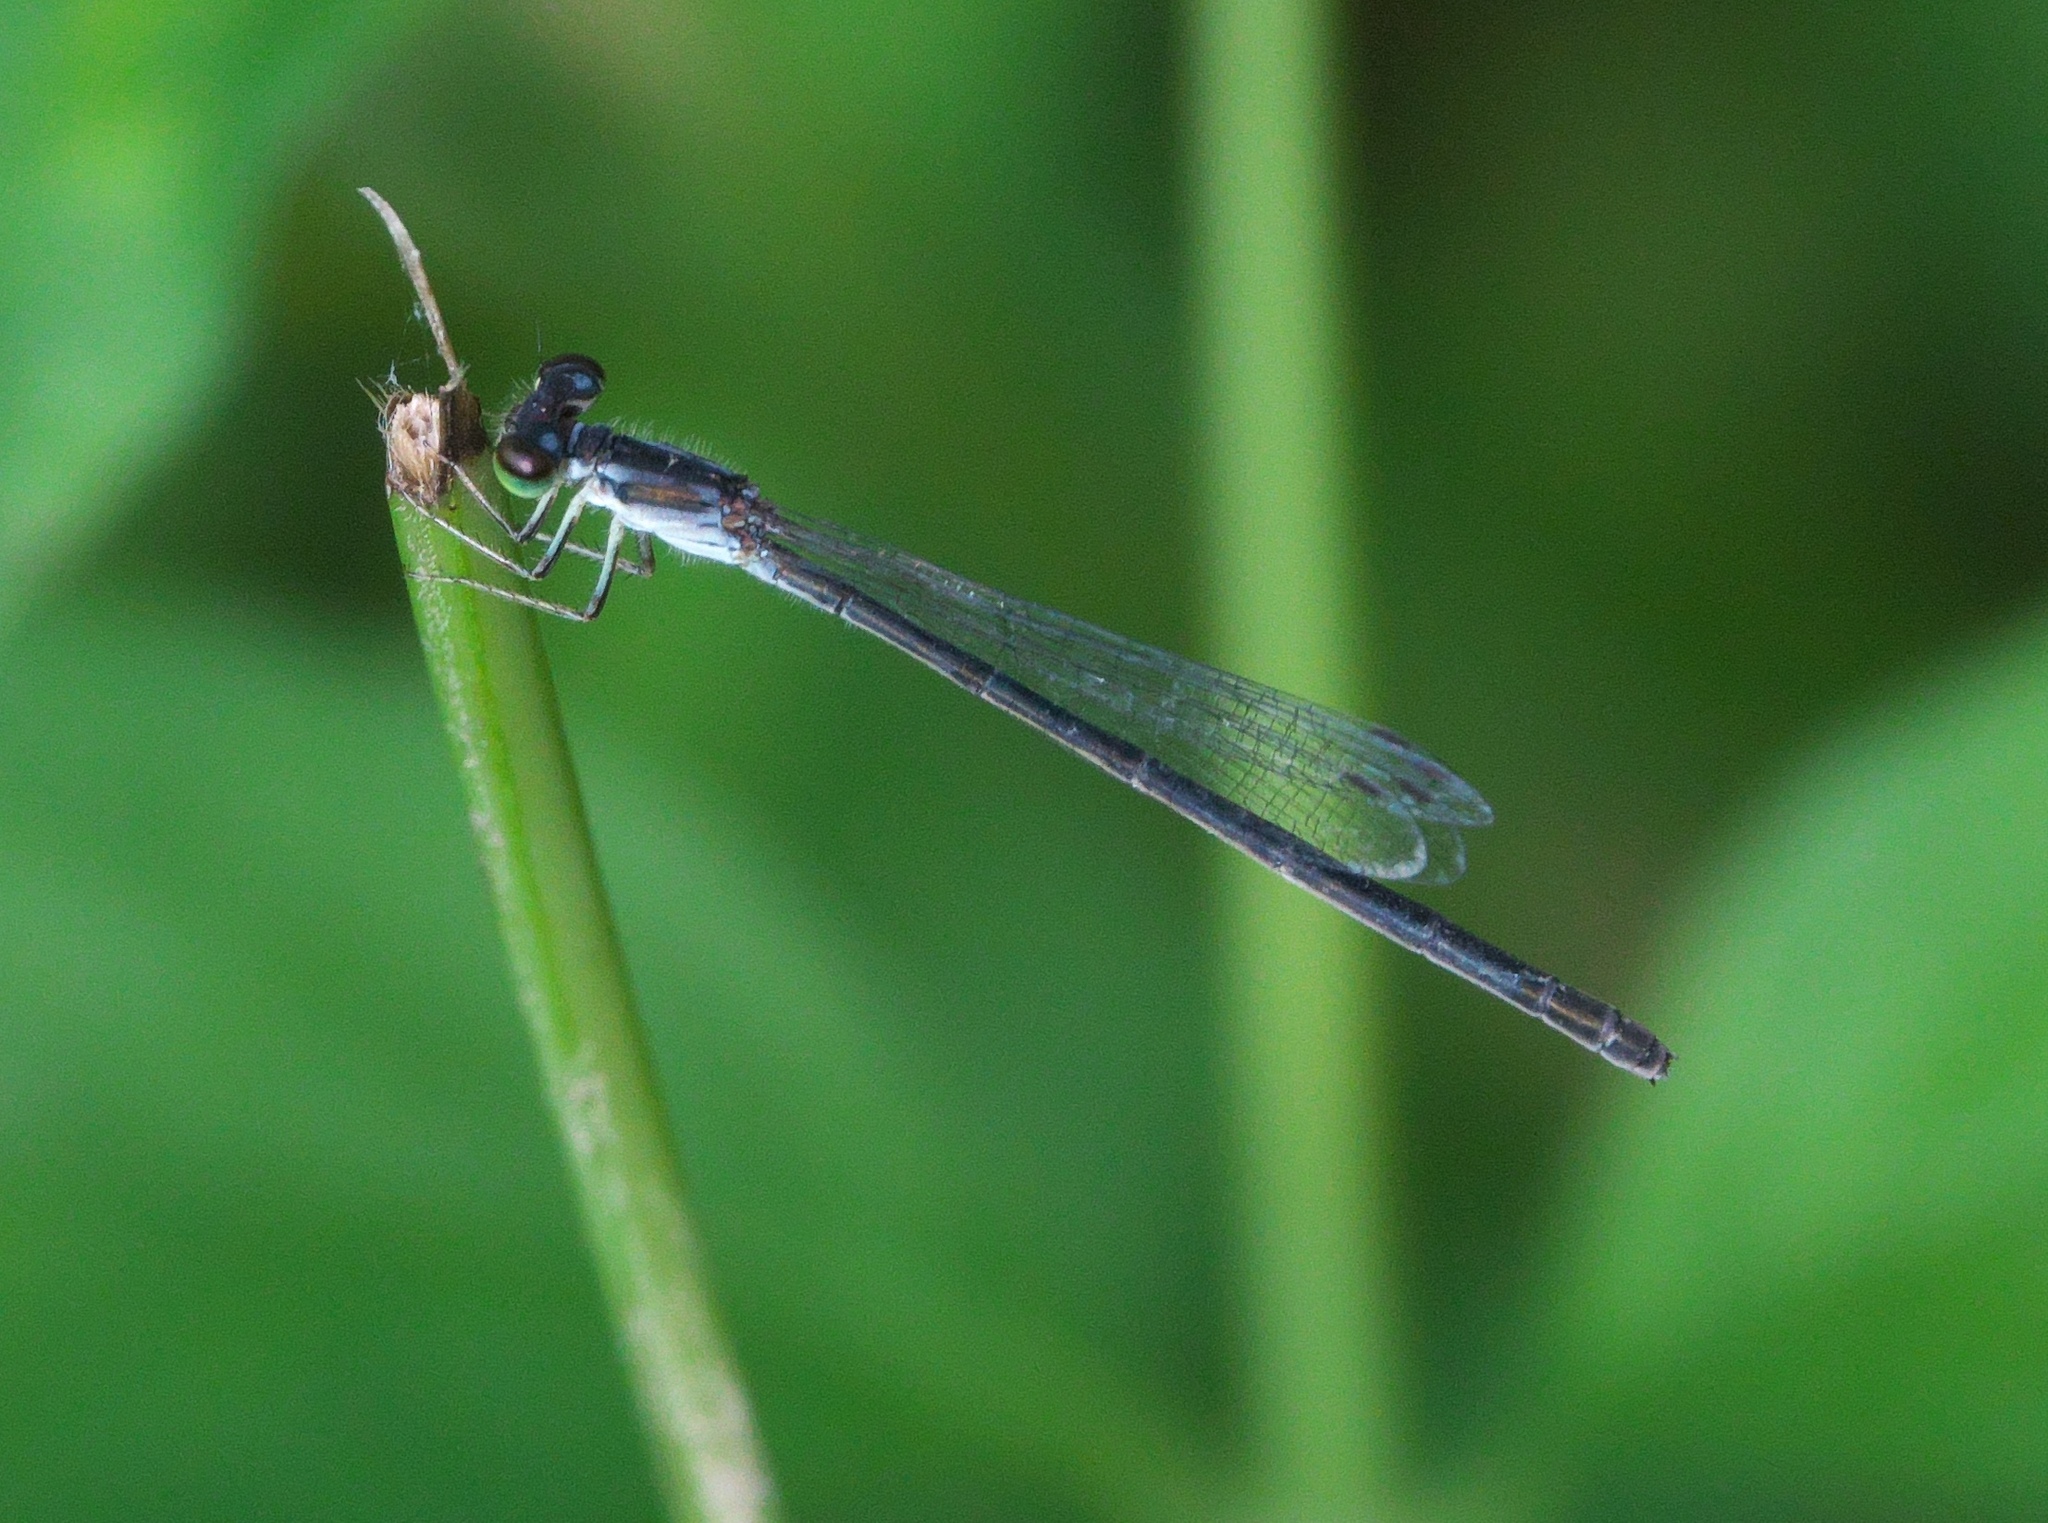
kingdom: Animalia
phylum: Arthropoda
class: Insecta
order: Odonata
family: Coenagrionidae
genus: Ischnura
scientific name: Ischnura posita
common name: Fragile forktail
